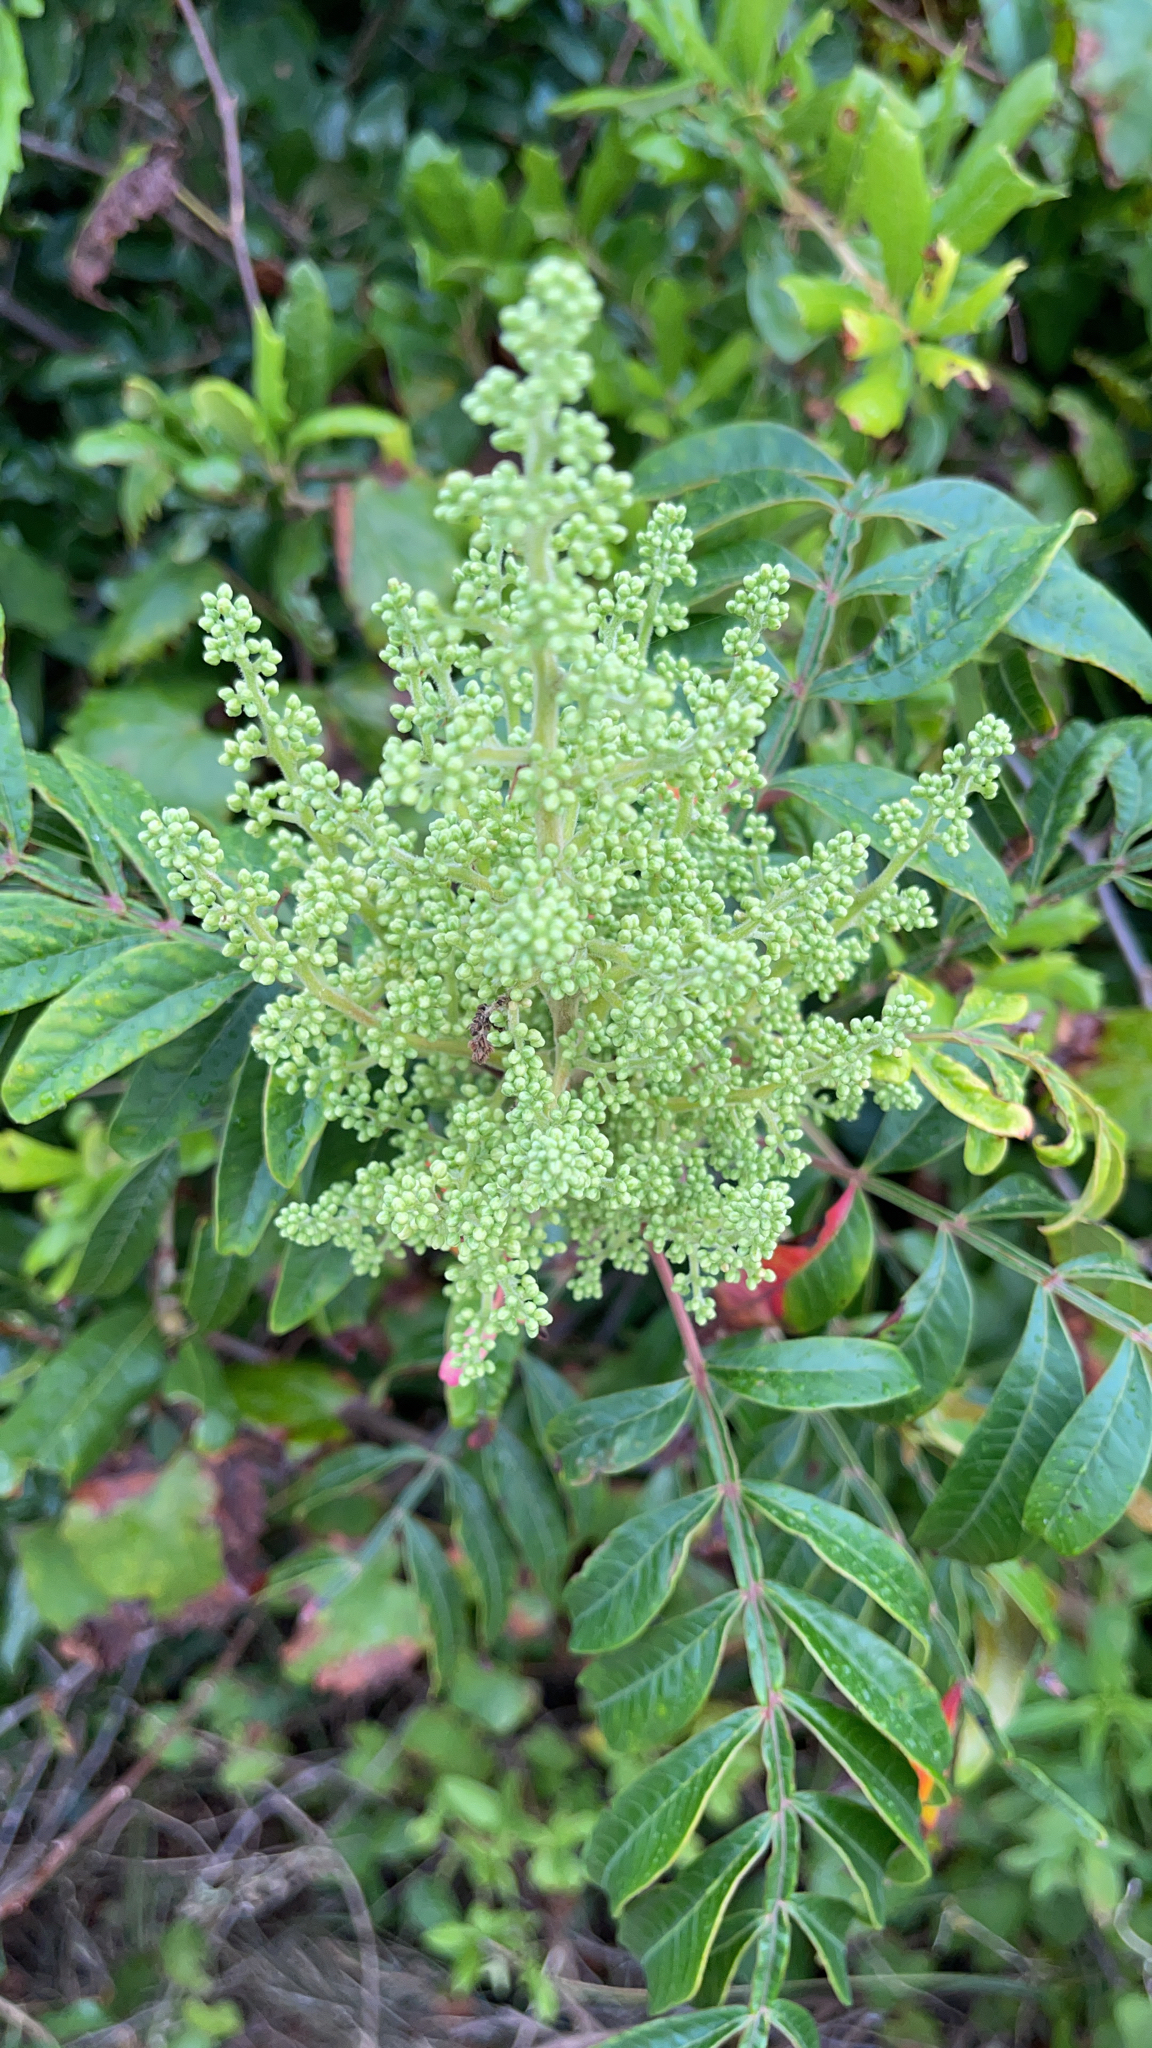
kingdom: Plantae
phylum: Tracheophyta
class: Magnoliopsida
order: Sapindales
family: Anacardiaceae
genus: Rhus
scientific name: Rhus copallina
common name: Shining sumac
